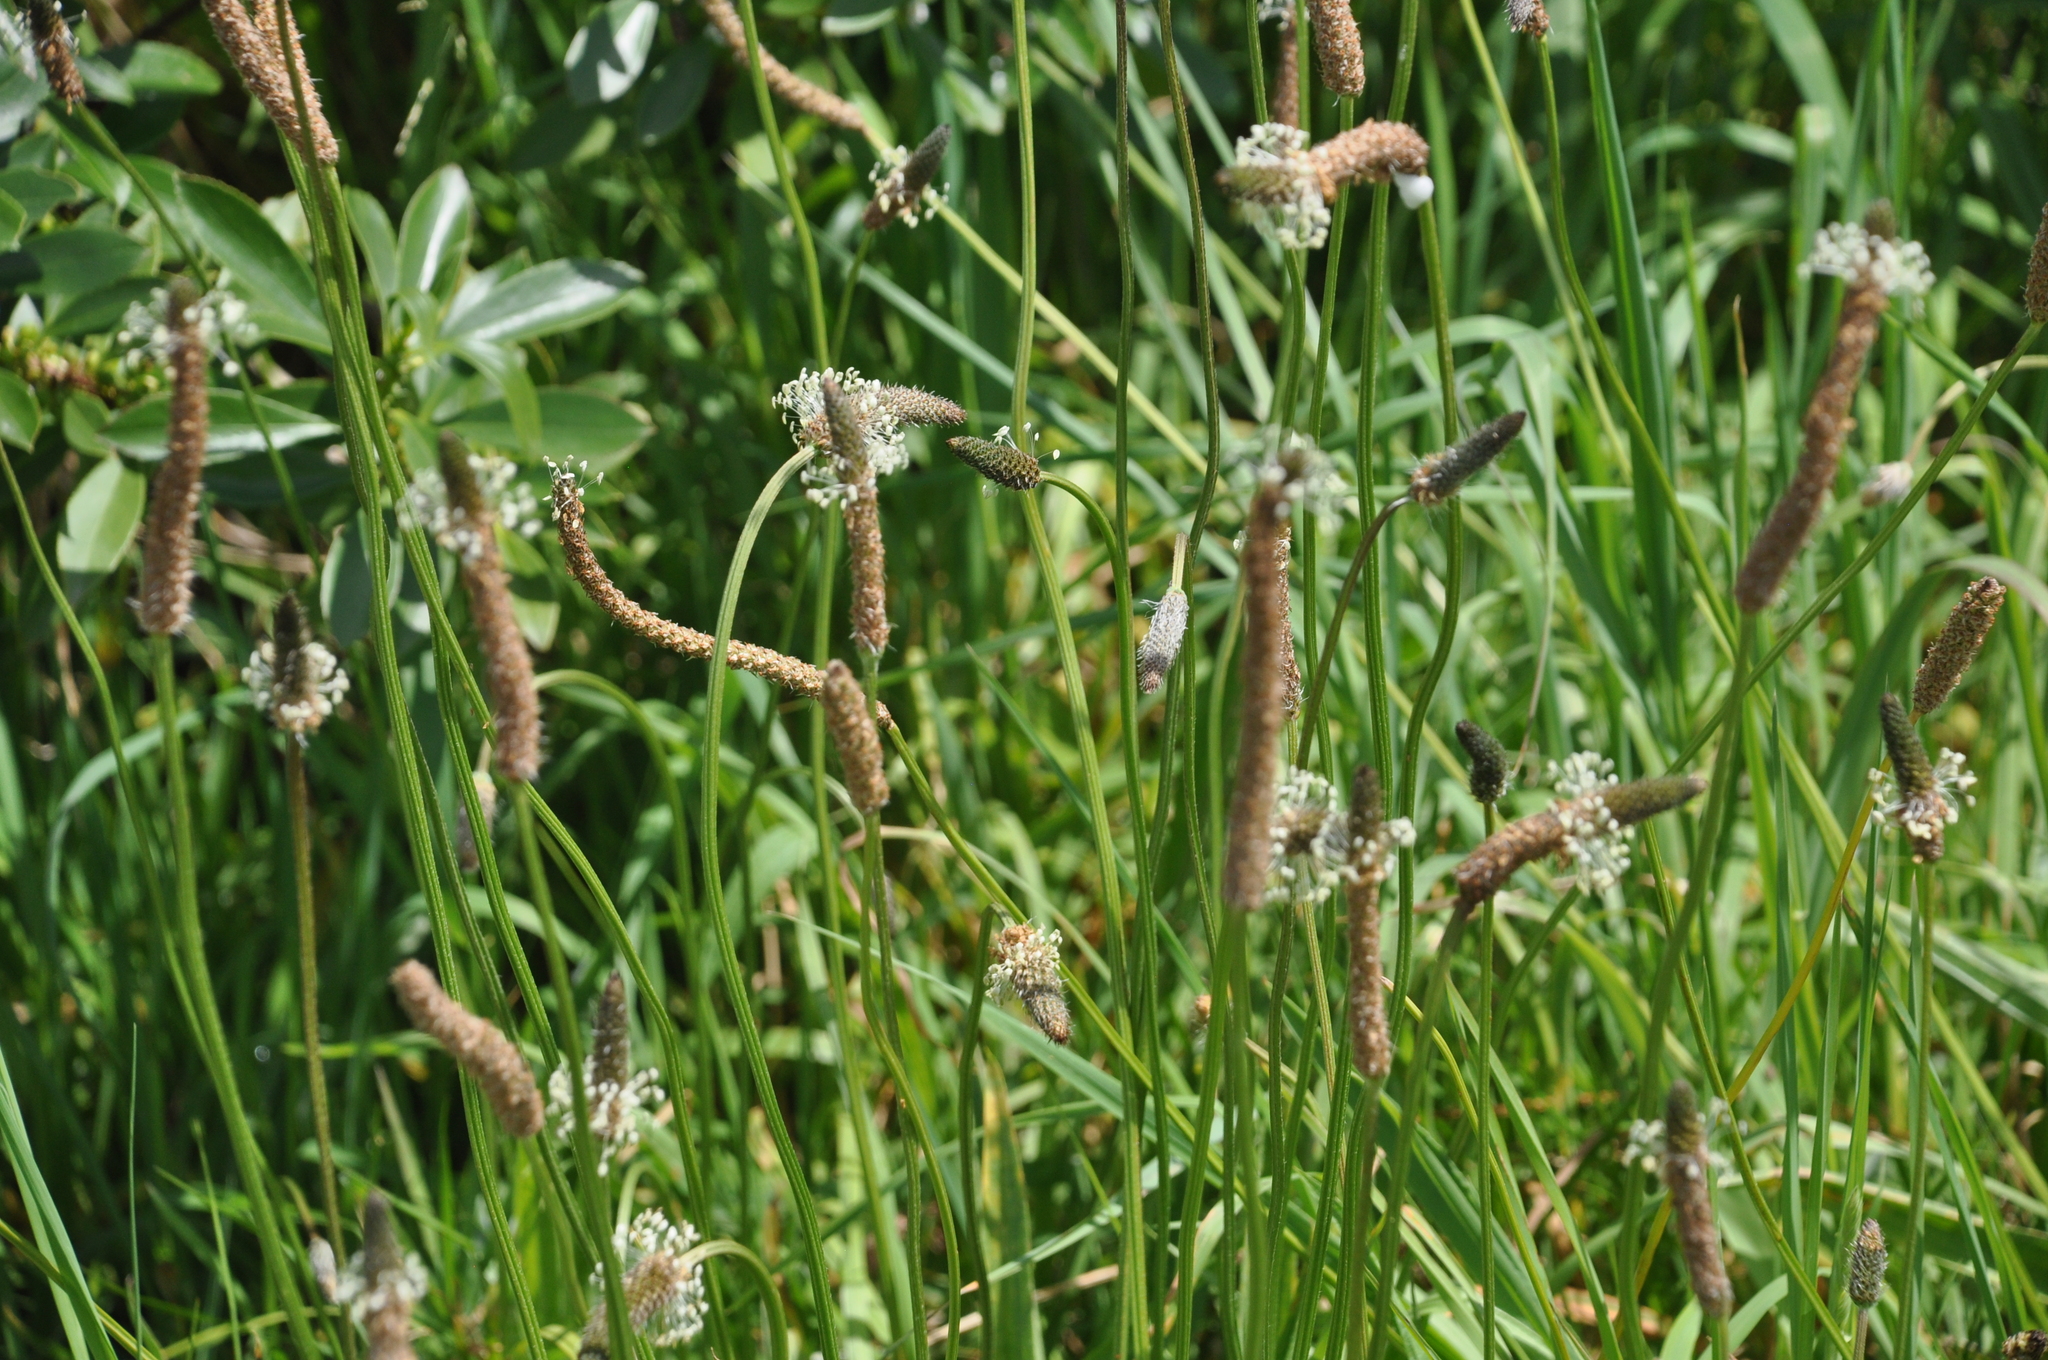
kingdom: Plantae
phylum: Tracheophyta
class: Magnoliopsida
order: Lamiales
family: Plantaginaceae
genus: Plantago
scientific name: Plantago lanceolata
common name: Ribwort plantain
